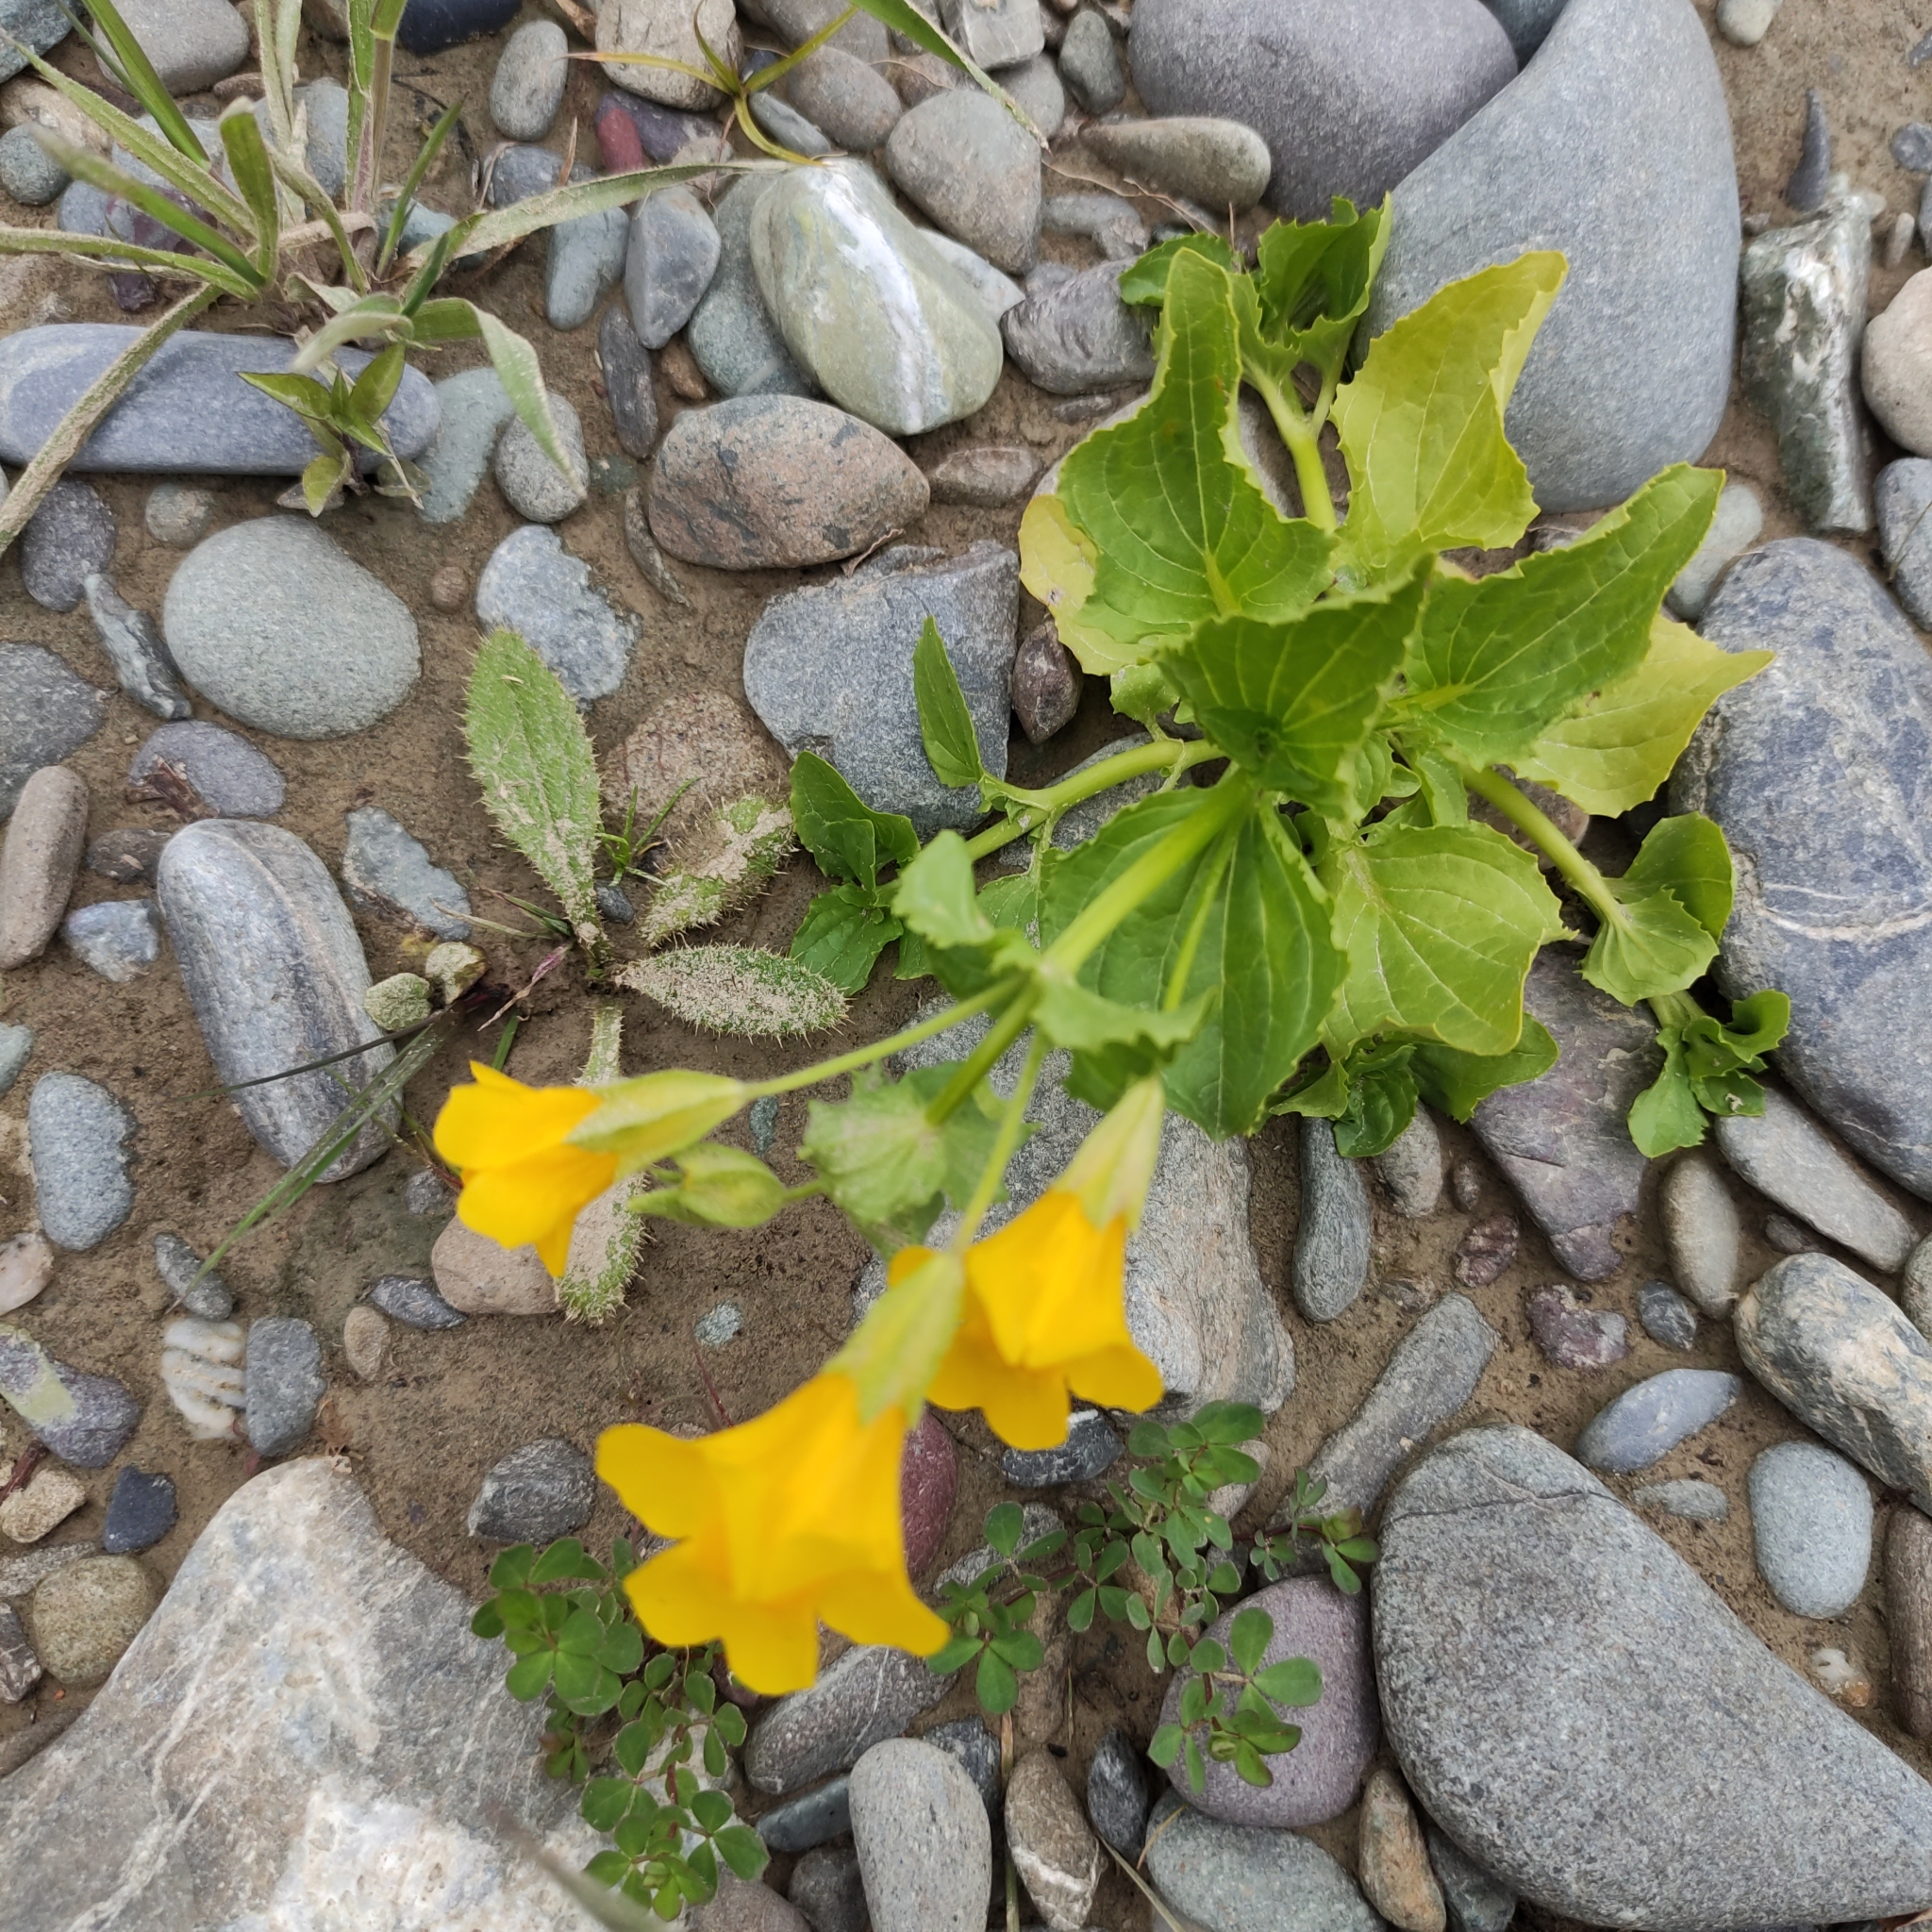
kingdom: Plantae
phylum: Tracheophyta
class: Magnoliopsida
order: Lamiales
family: Phrymaceae
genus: Erythranthe
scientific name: Erythranthe guttata
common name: Monkeyflower
